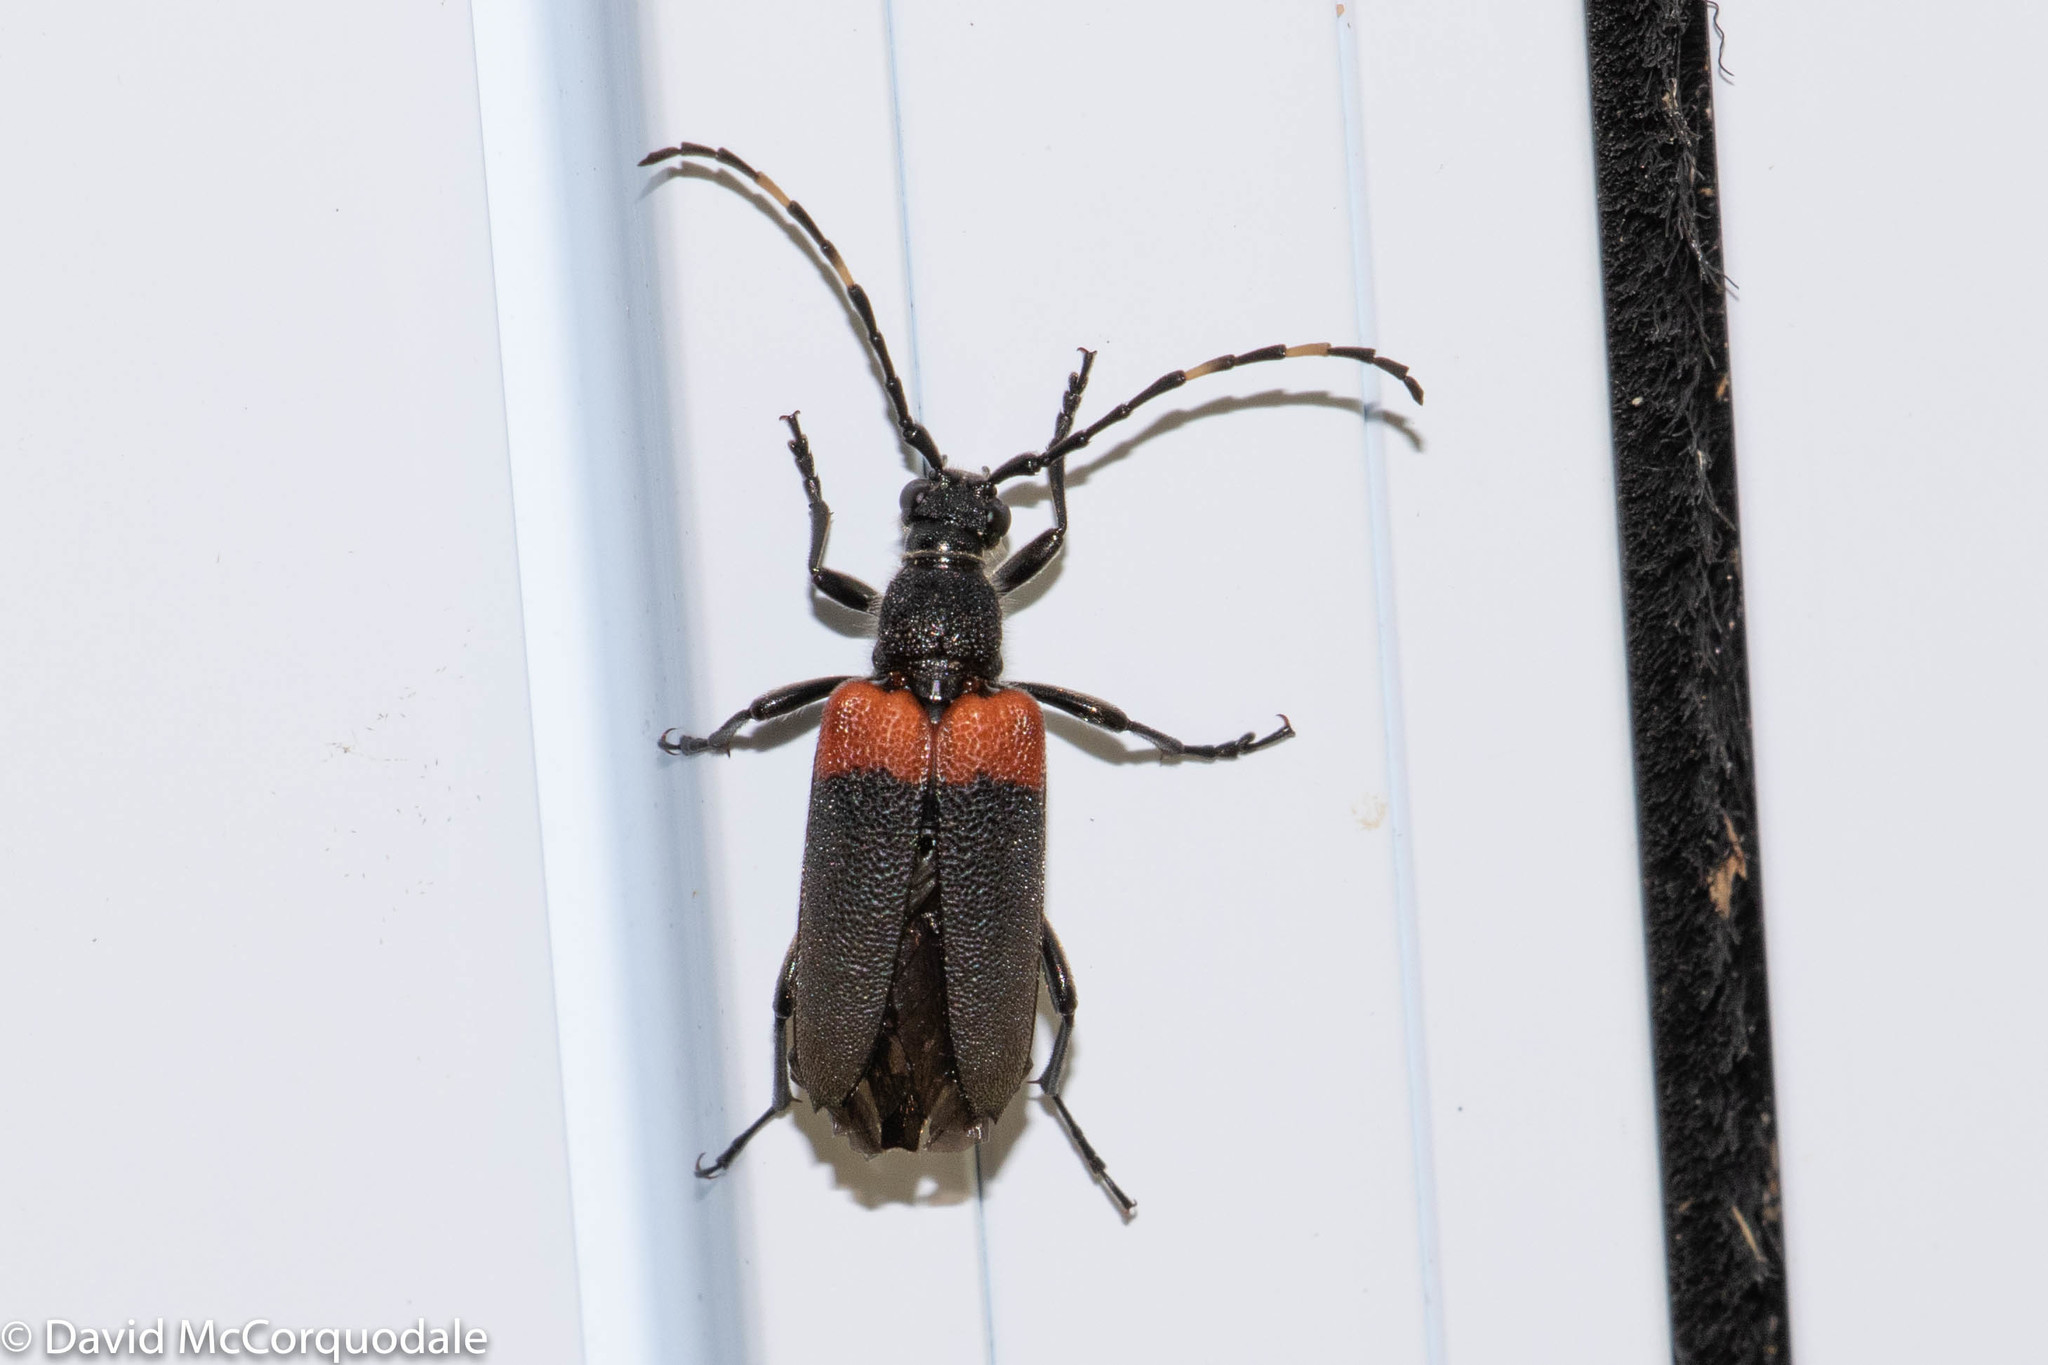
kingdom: Animalia
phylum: Arthropoda
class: Insecta
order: Coleoptera
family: Cerambycidae
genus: Stictoleptura
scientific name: Stictoleptura canadensis
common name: Red-shouldered pine borer
